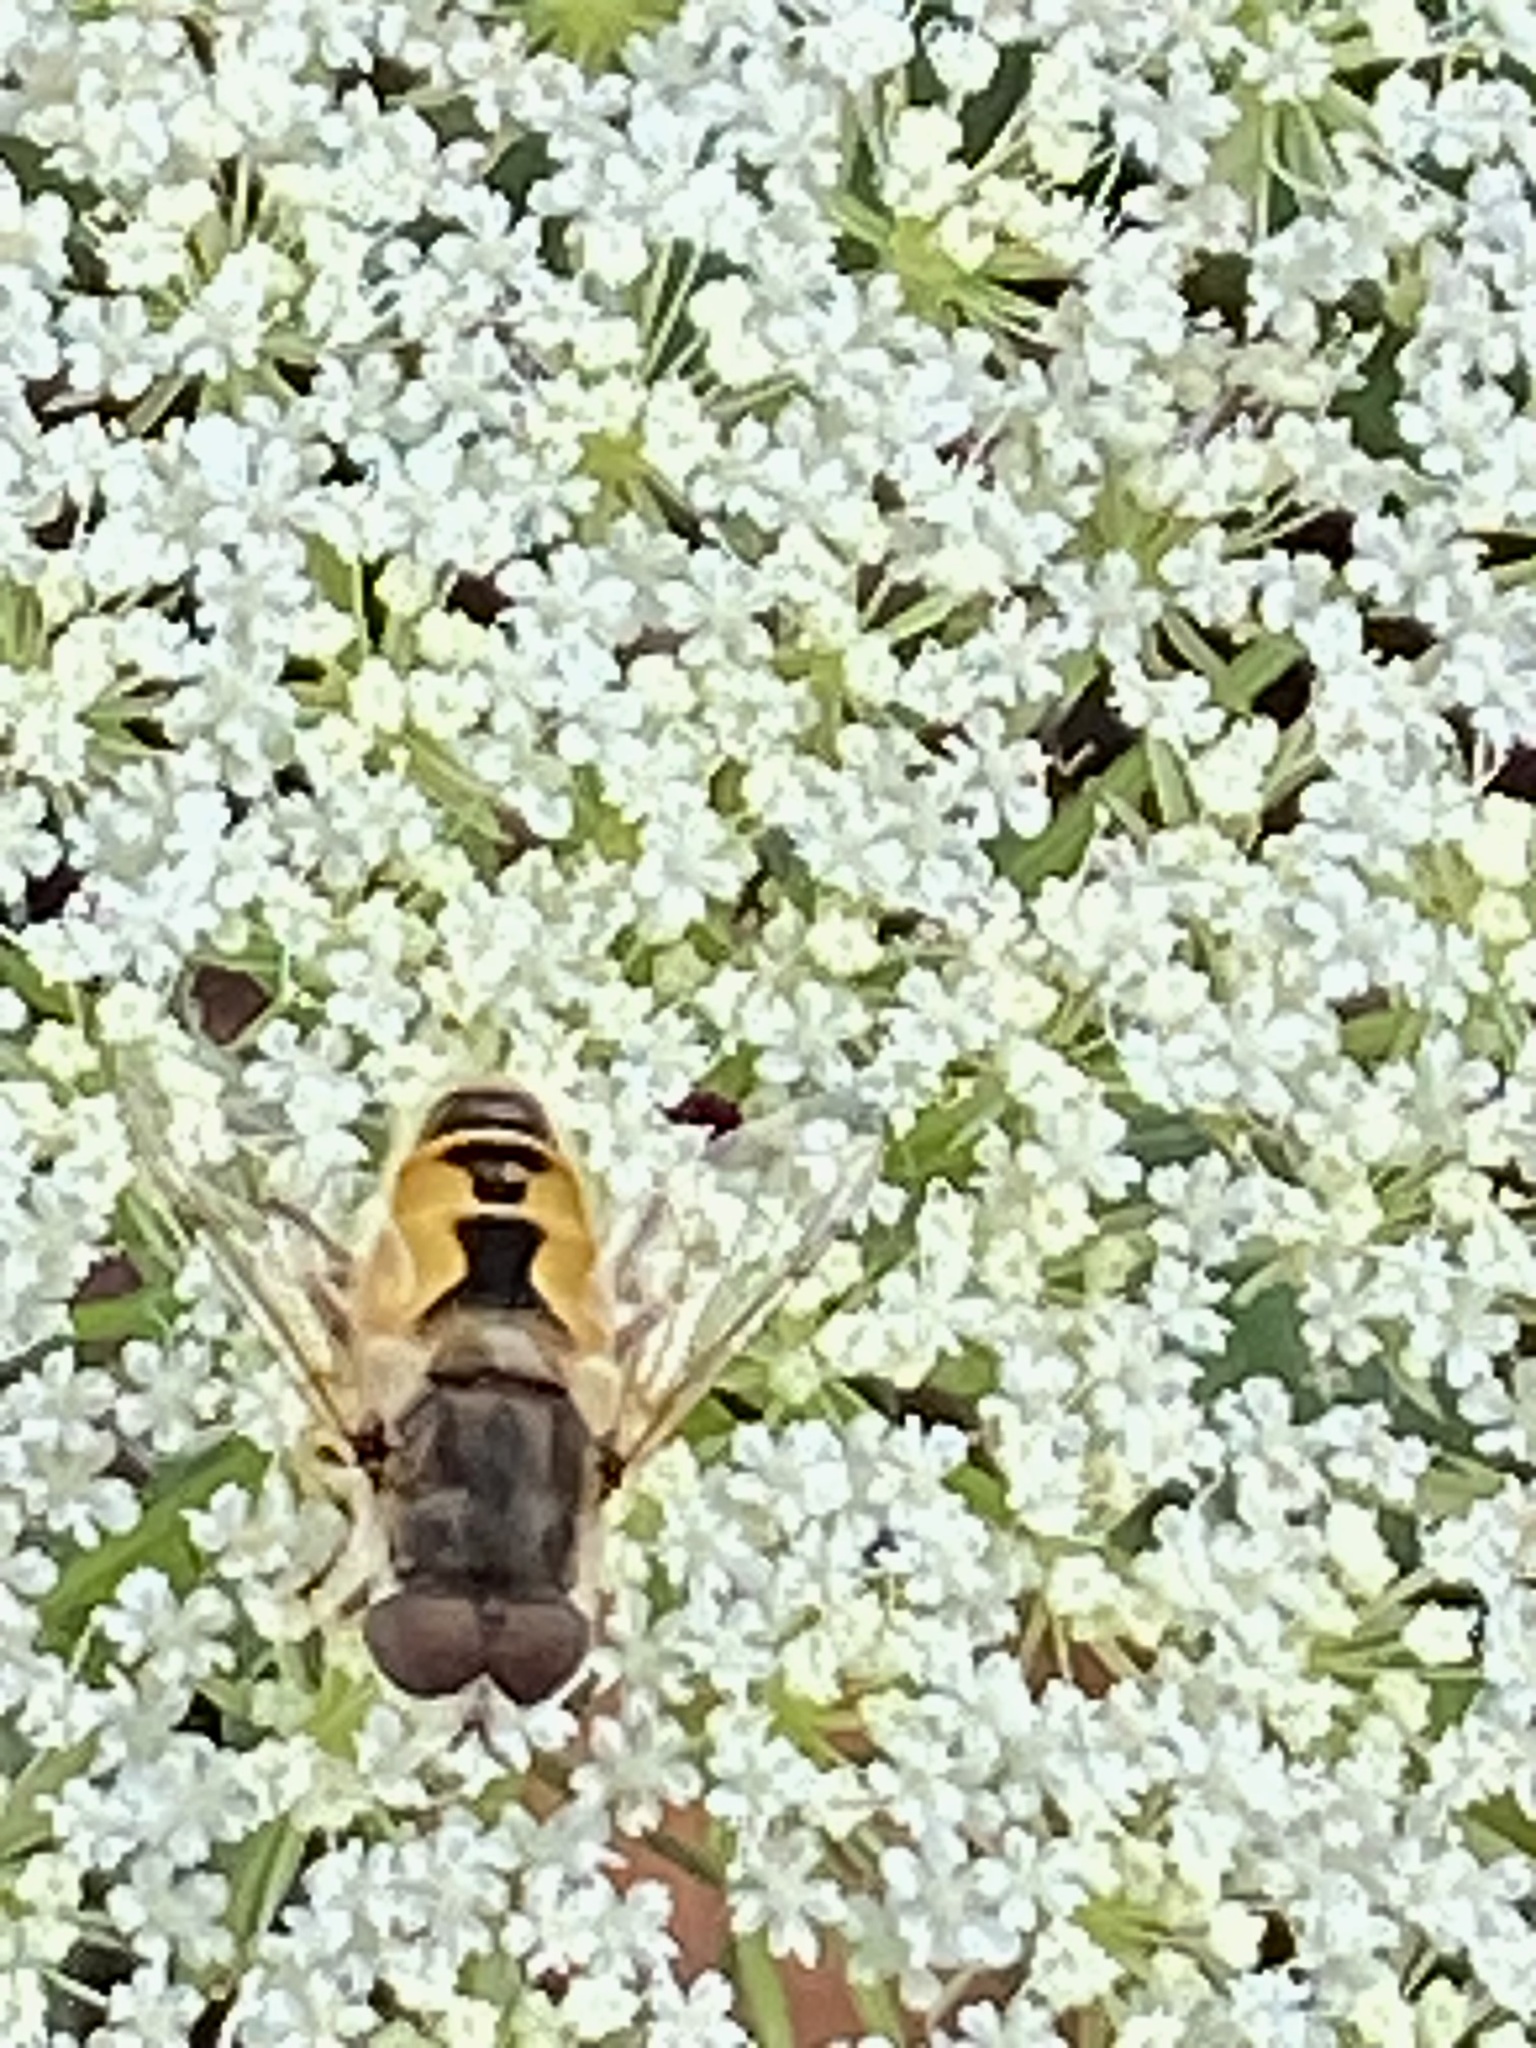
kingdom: Animalia
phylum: Arthropoda
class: Insecta
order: Diptera
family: Syrphidae
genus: Eristalis
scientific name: Eristalis arbustorum
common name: Hover fly
